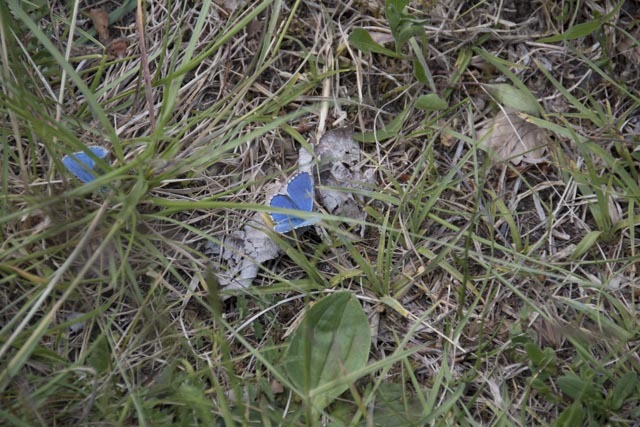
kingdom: Animalia
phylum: Arthropoda
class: Insecta
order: Lepidoptera
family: Lycaenidae
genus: Lysandra
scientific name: Lysandra bellargus
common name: Adonis blue
